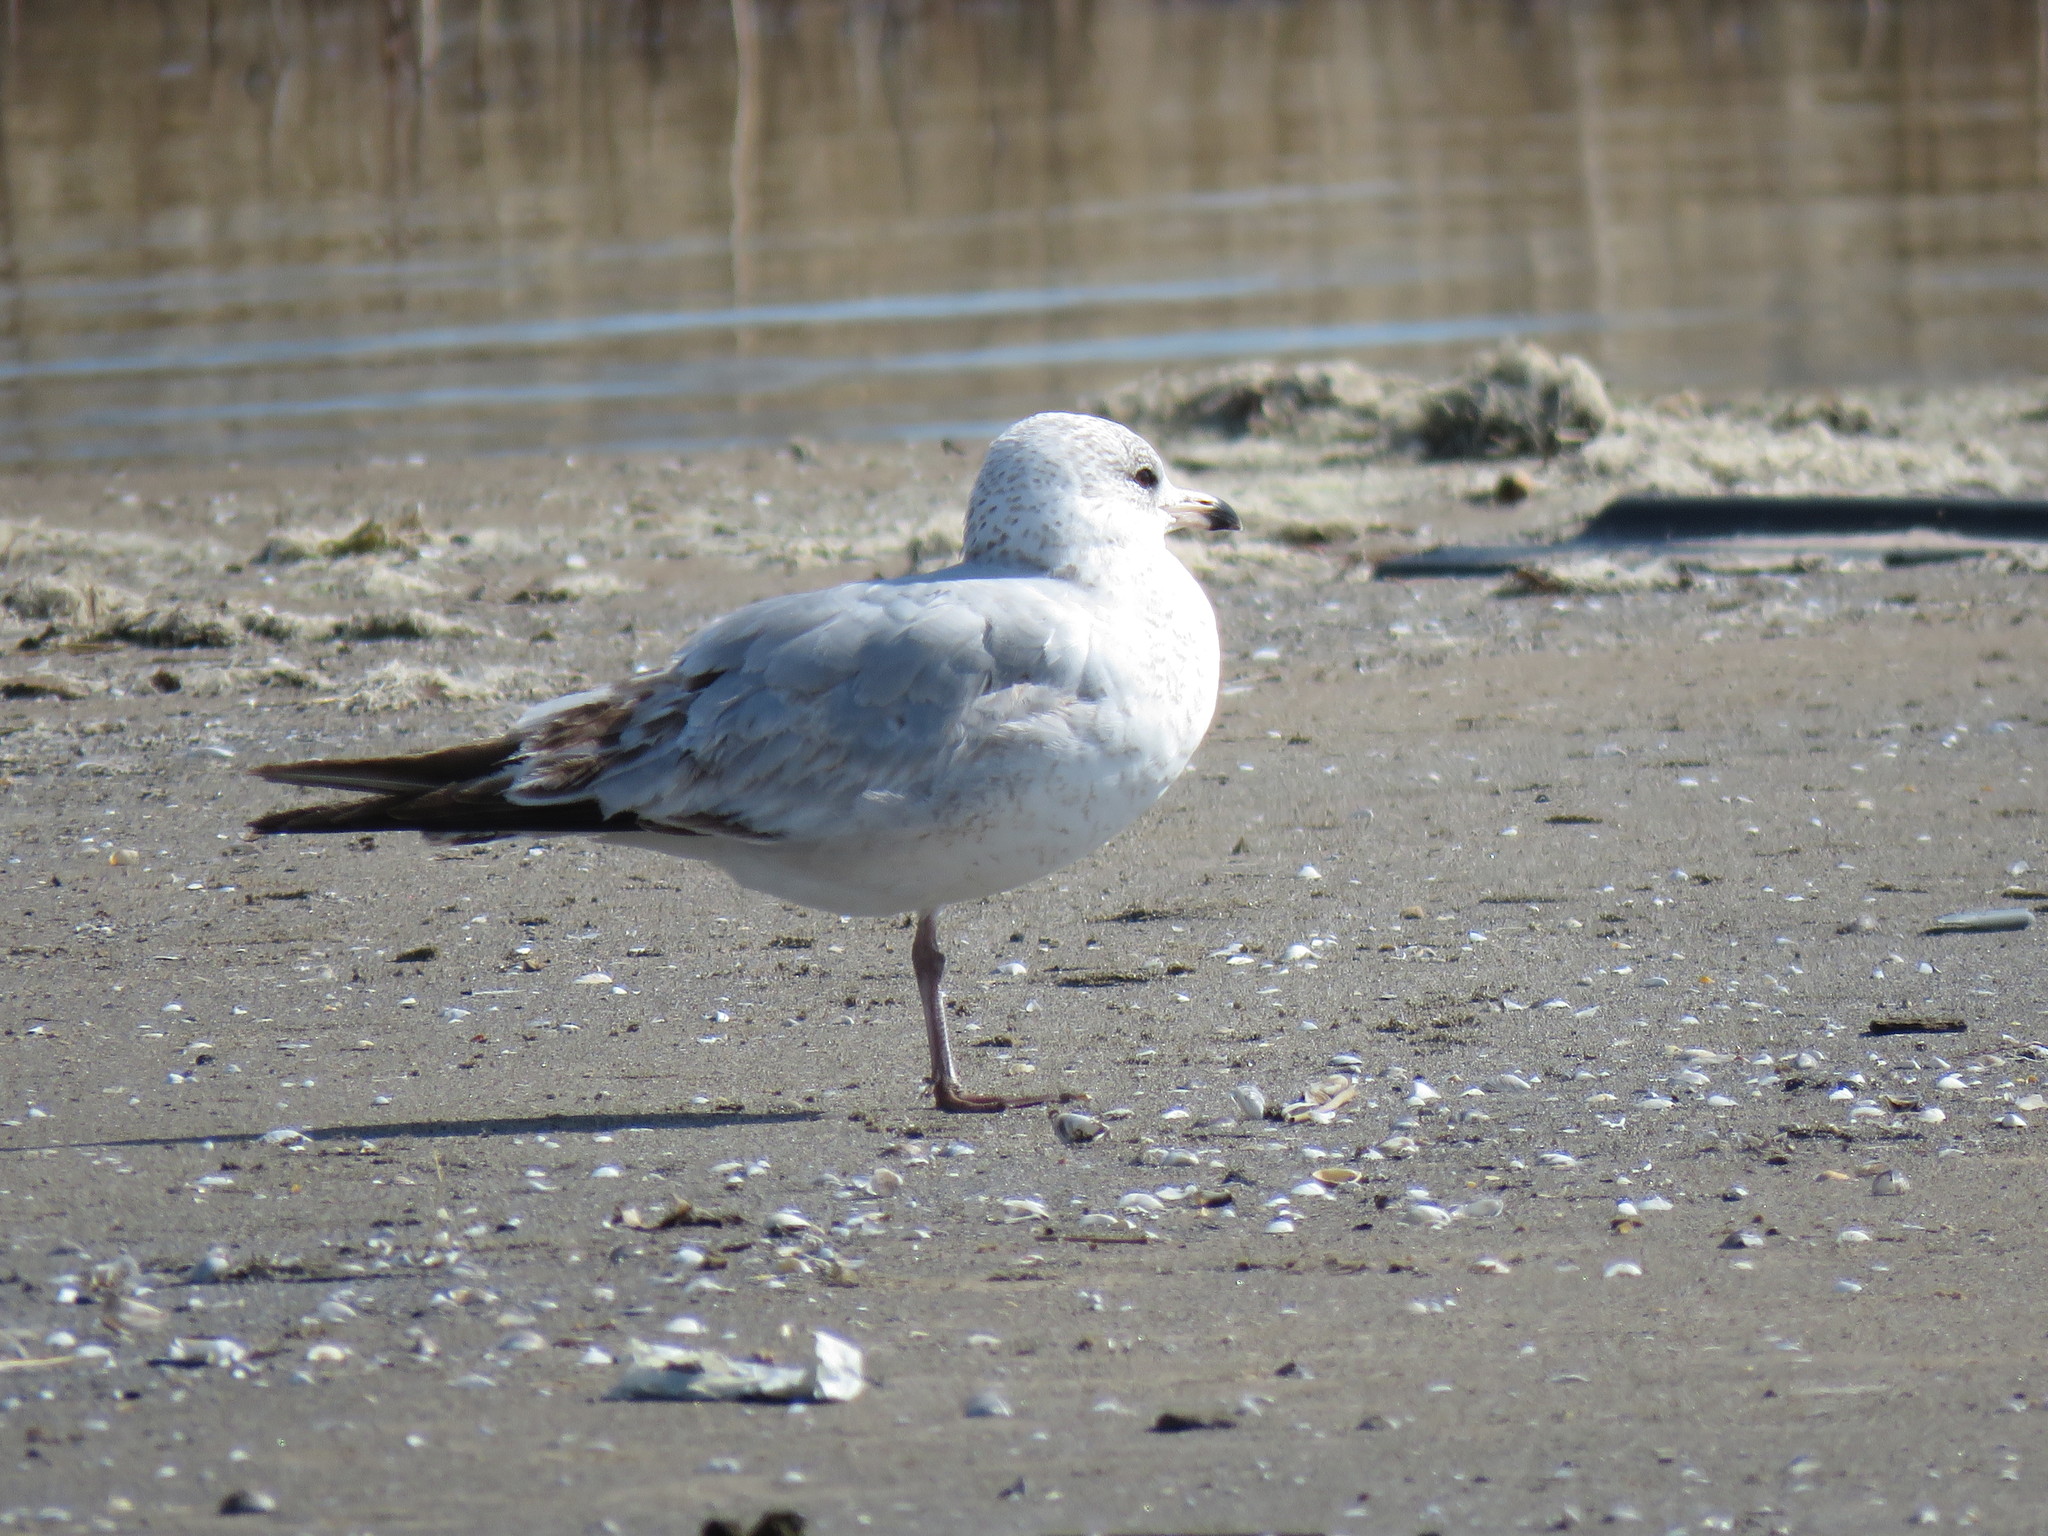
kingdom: Animalia
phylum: Chordata
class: Aves
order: Charadriiformes
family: Laridae
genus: Larus
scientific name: Larus delawarensis
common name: Ring-billed gull
